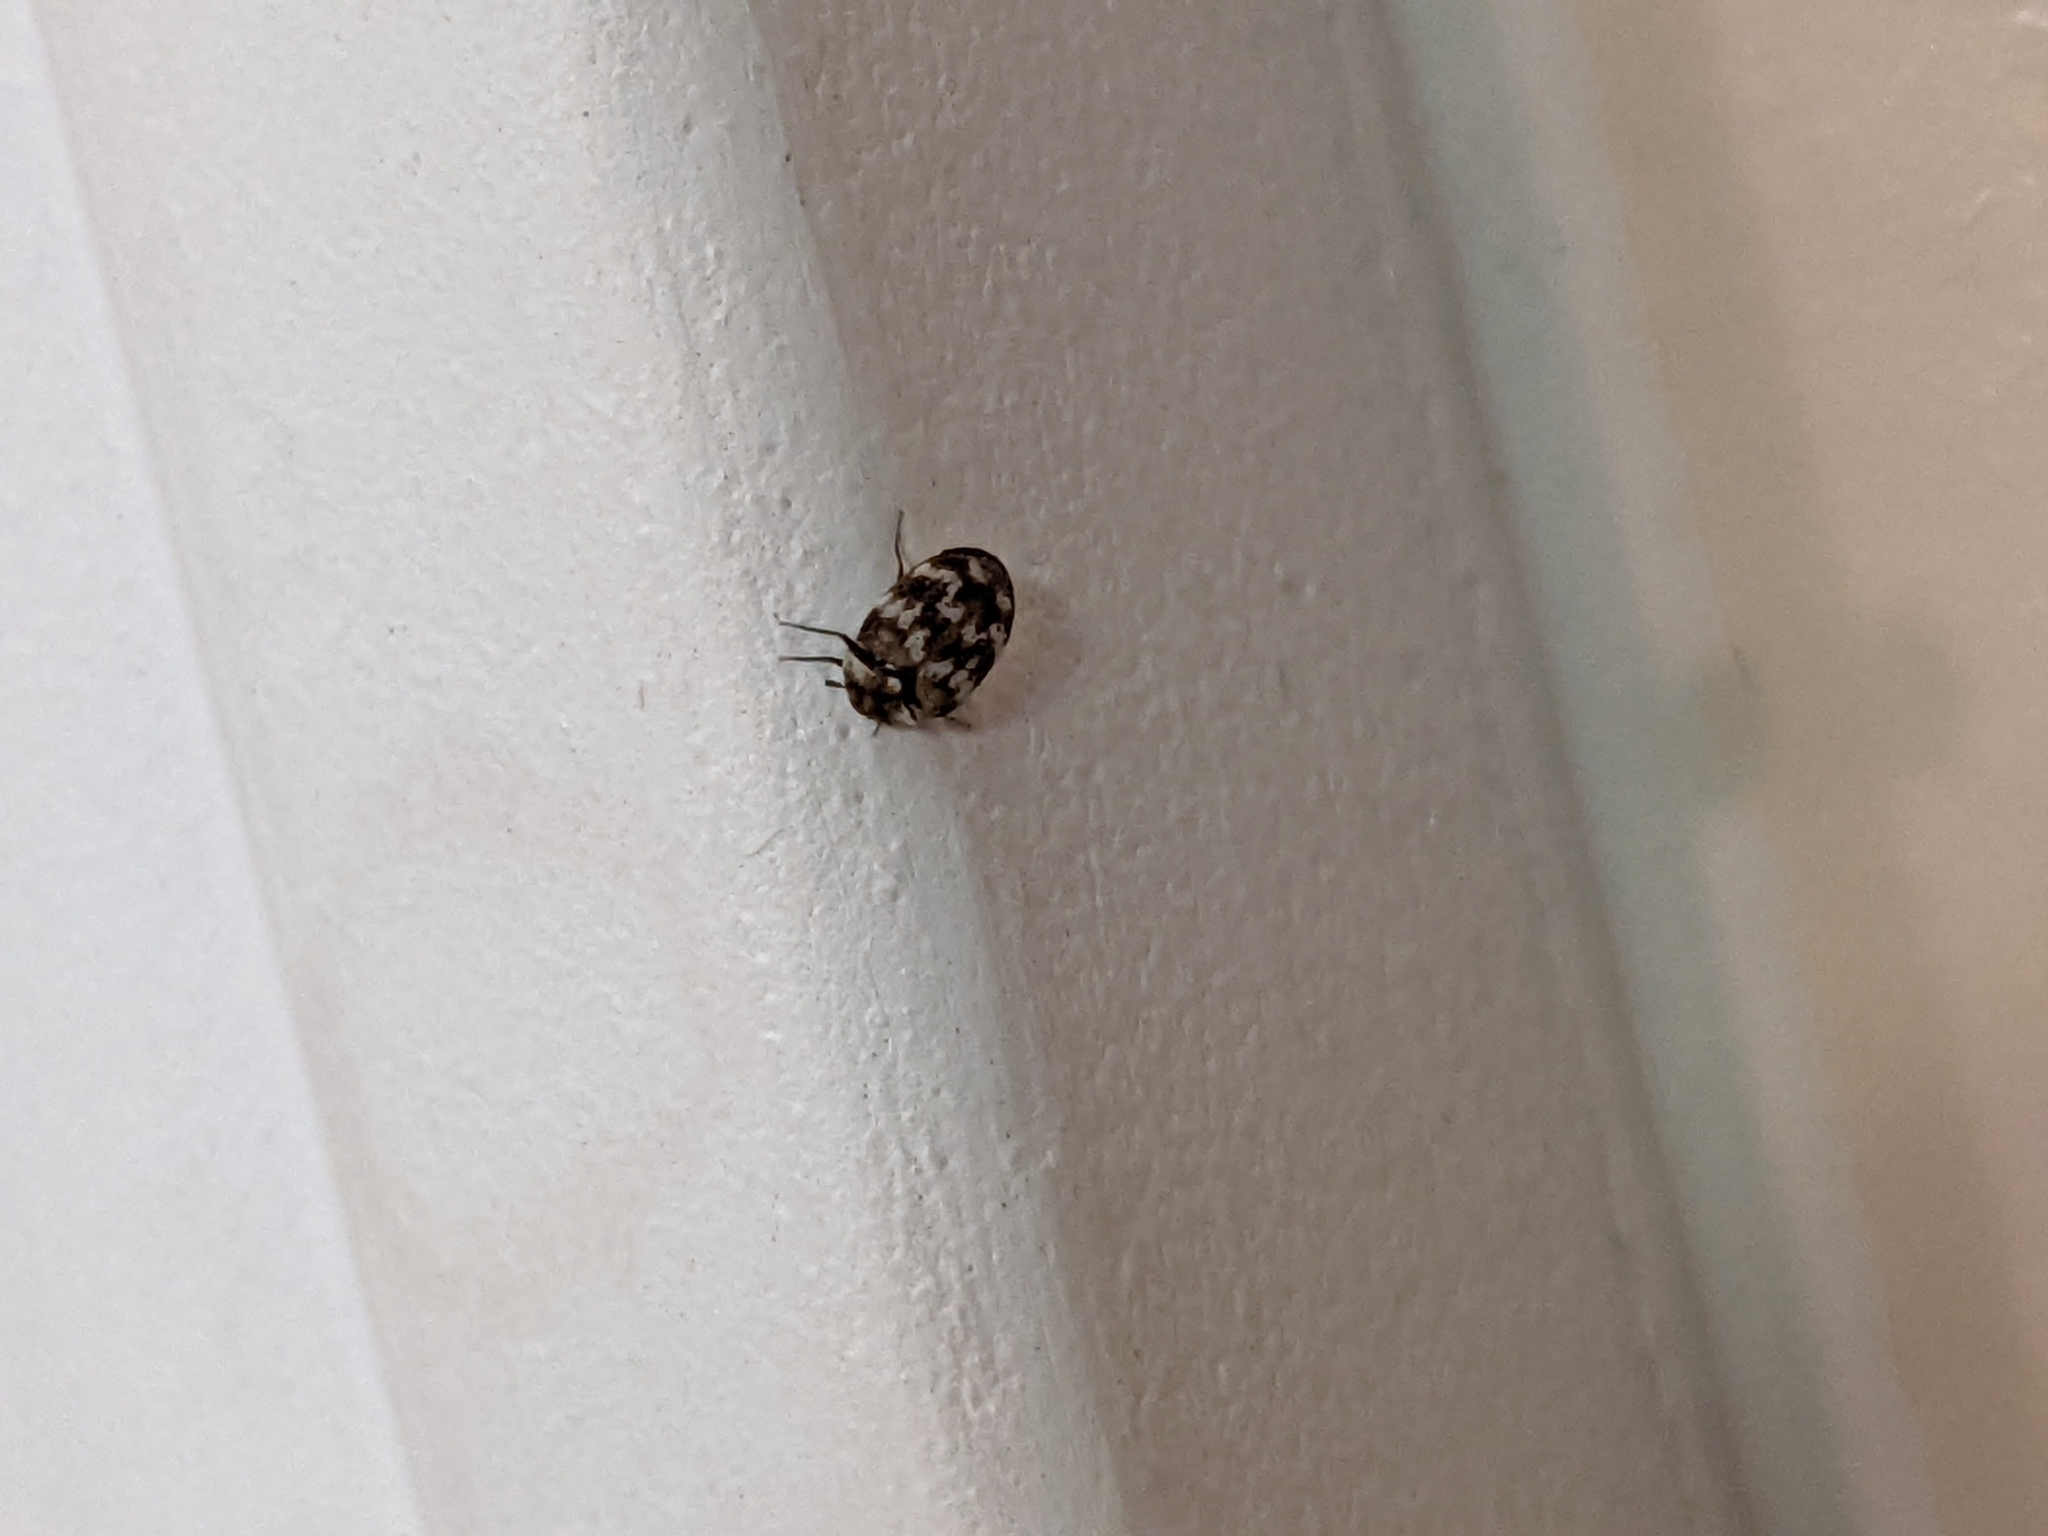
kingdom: Animalia
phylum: Arthropoda
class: Insecta
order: Coleoptera
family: Dermestidae
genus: Anthrenus
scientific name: Anthrenus verbasci
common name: Varied carpet beetle
